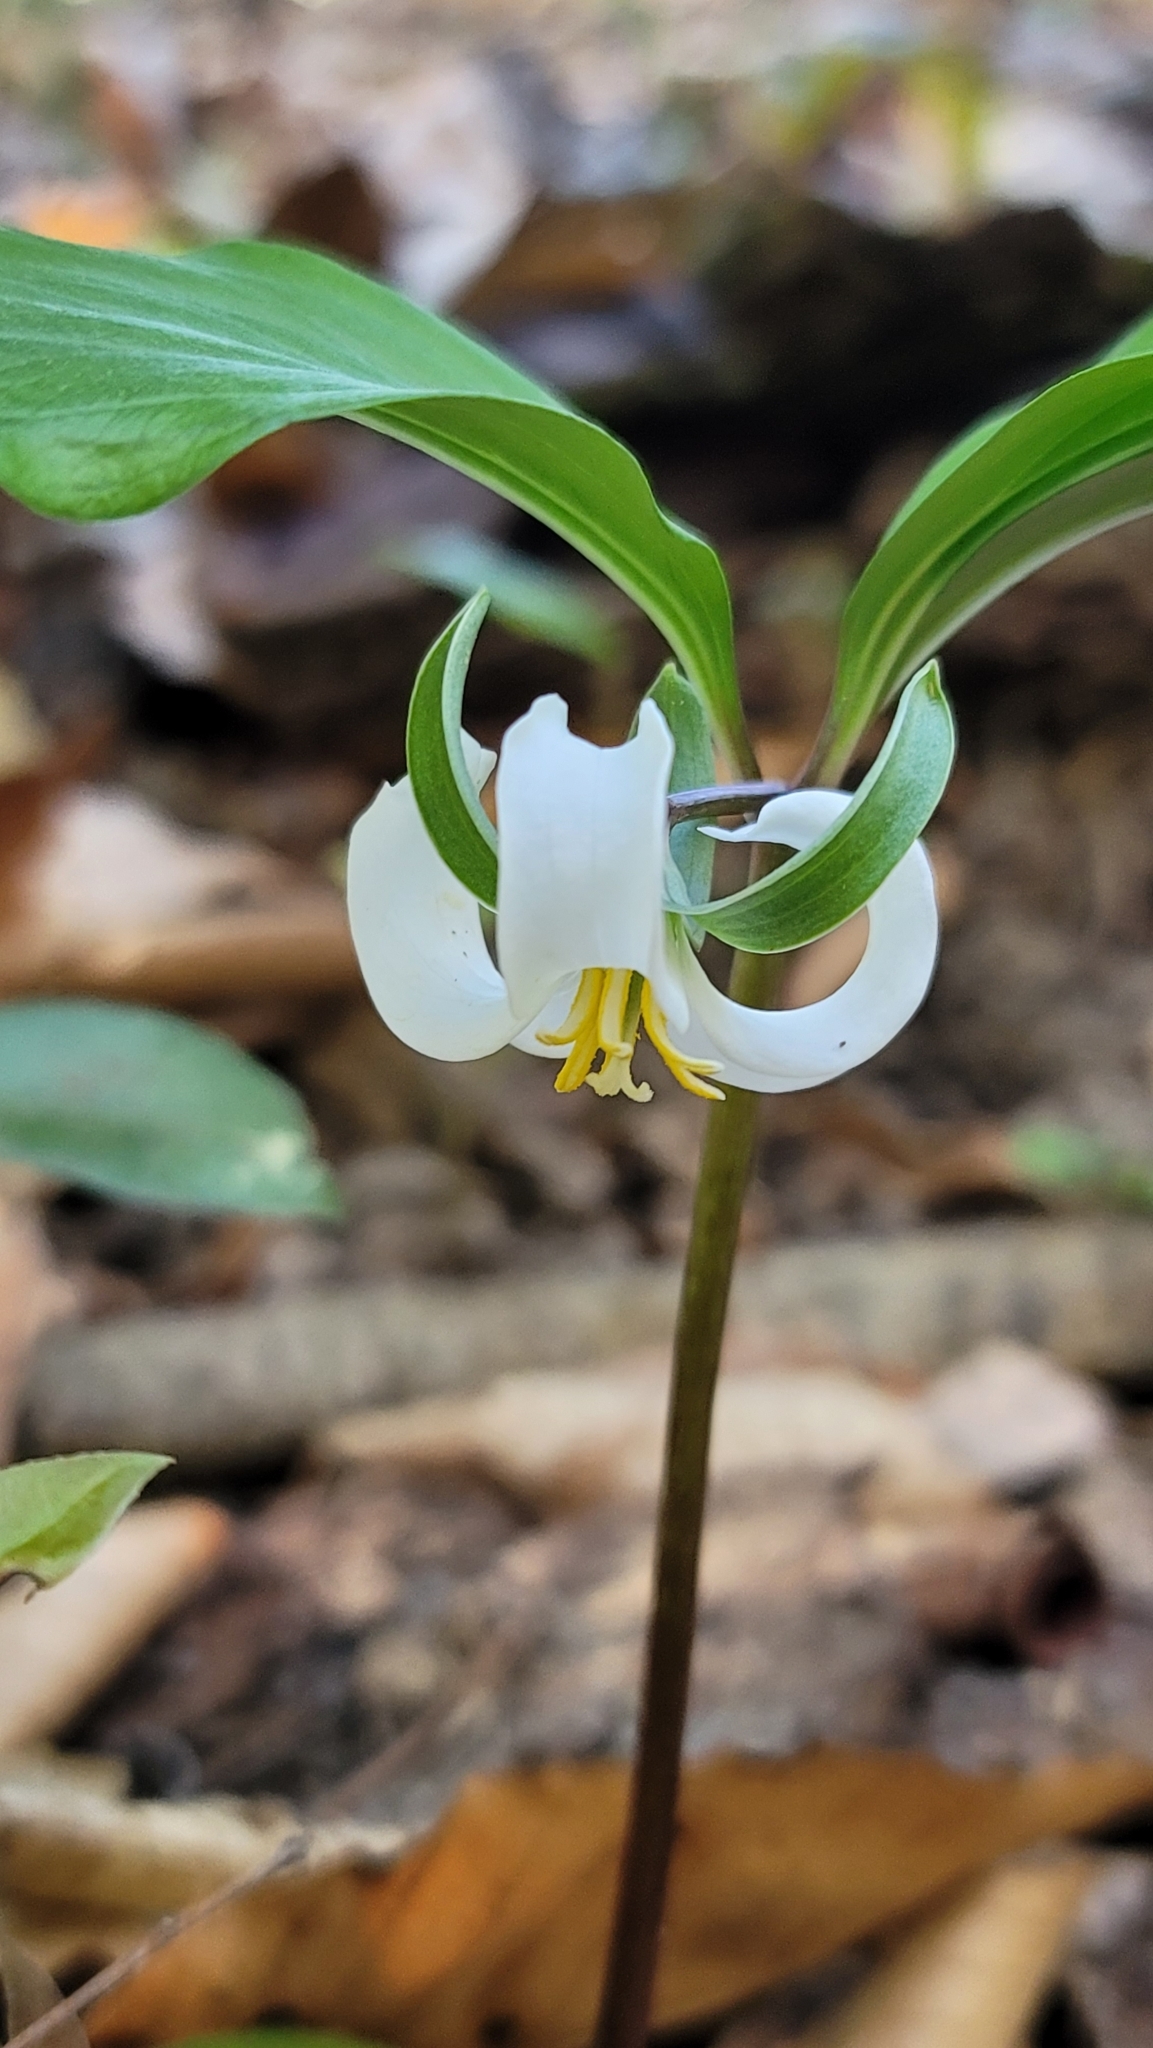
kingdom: Plantae
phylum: Tracheophyta
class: Liliopsida
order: Liliales
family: Melanthiaceae
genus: Trillium
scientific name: Trillium catesbaei
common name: Bashful trillium
